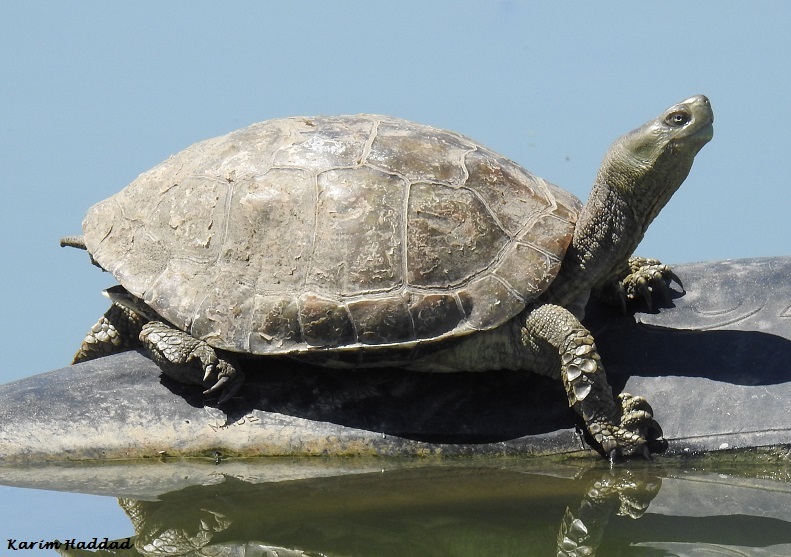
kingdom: Animalia
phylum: Chordata
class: Testudines
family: Geoemydidae
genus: Mauremys
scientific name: Mauremys leprosa
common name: Mediterranean pond turtle
